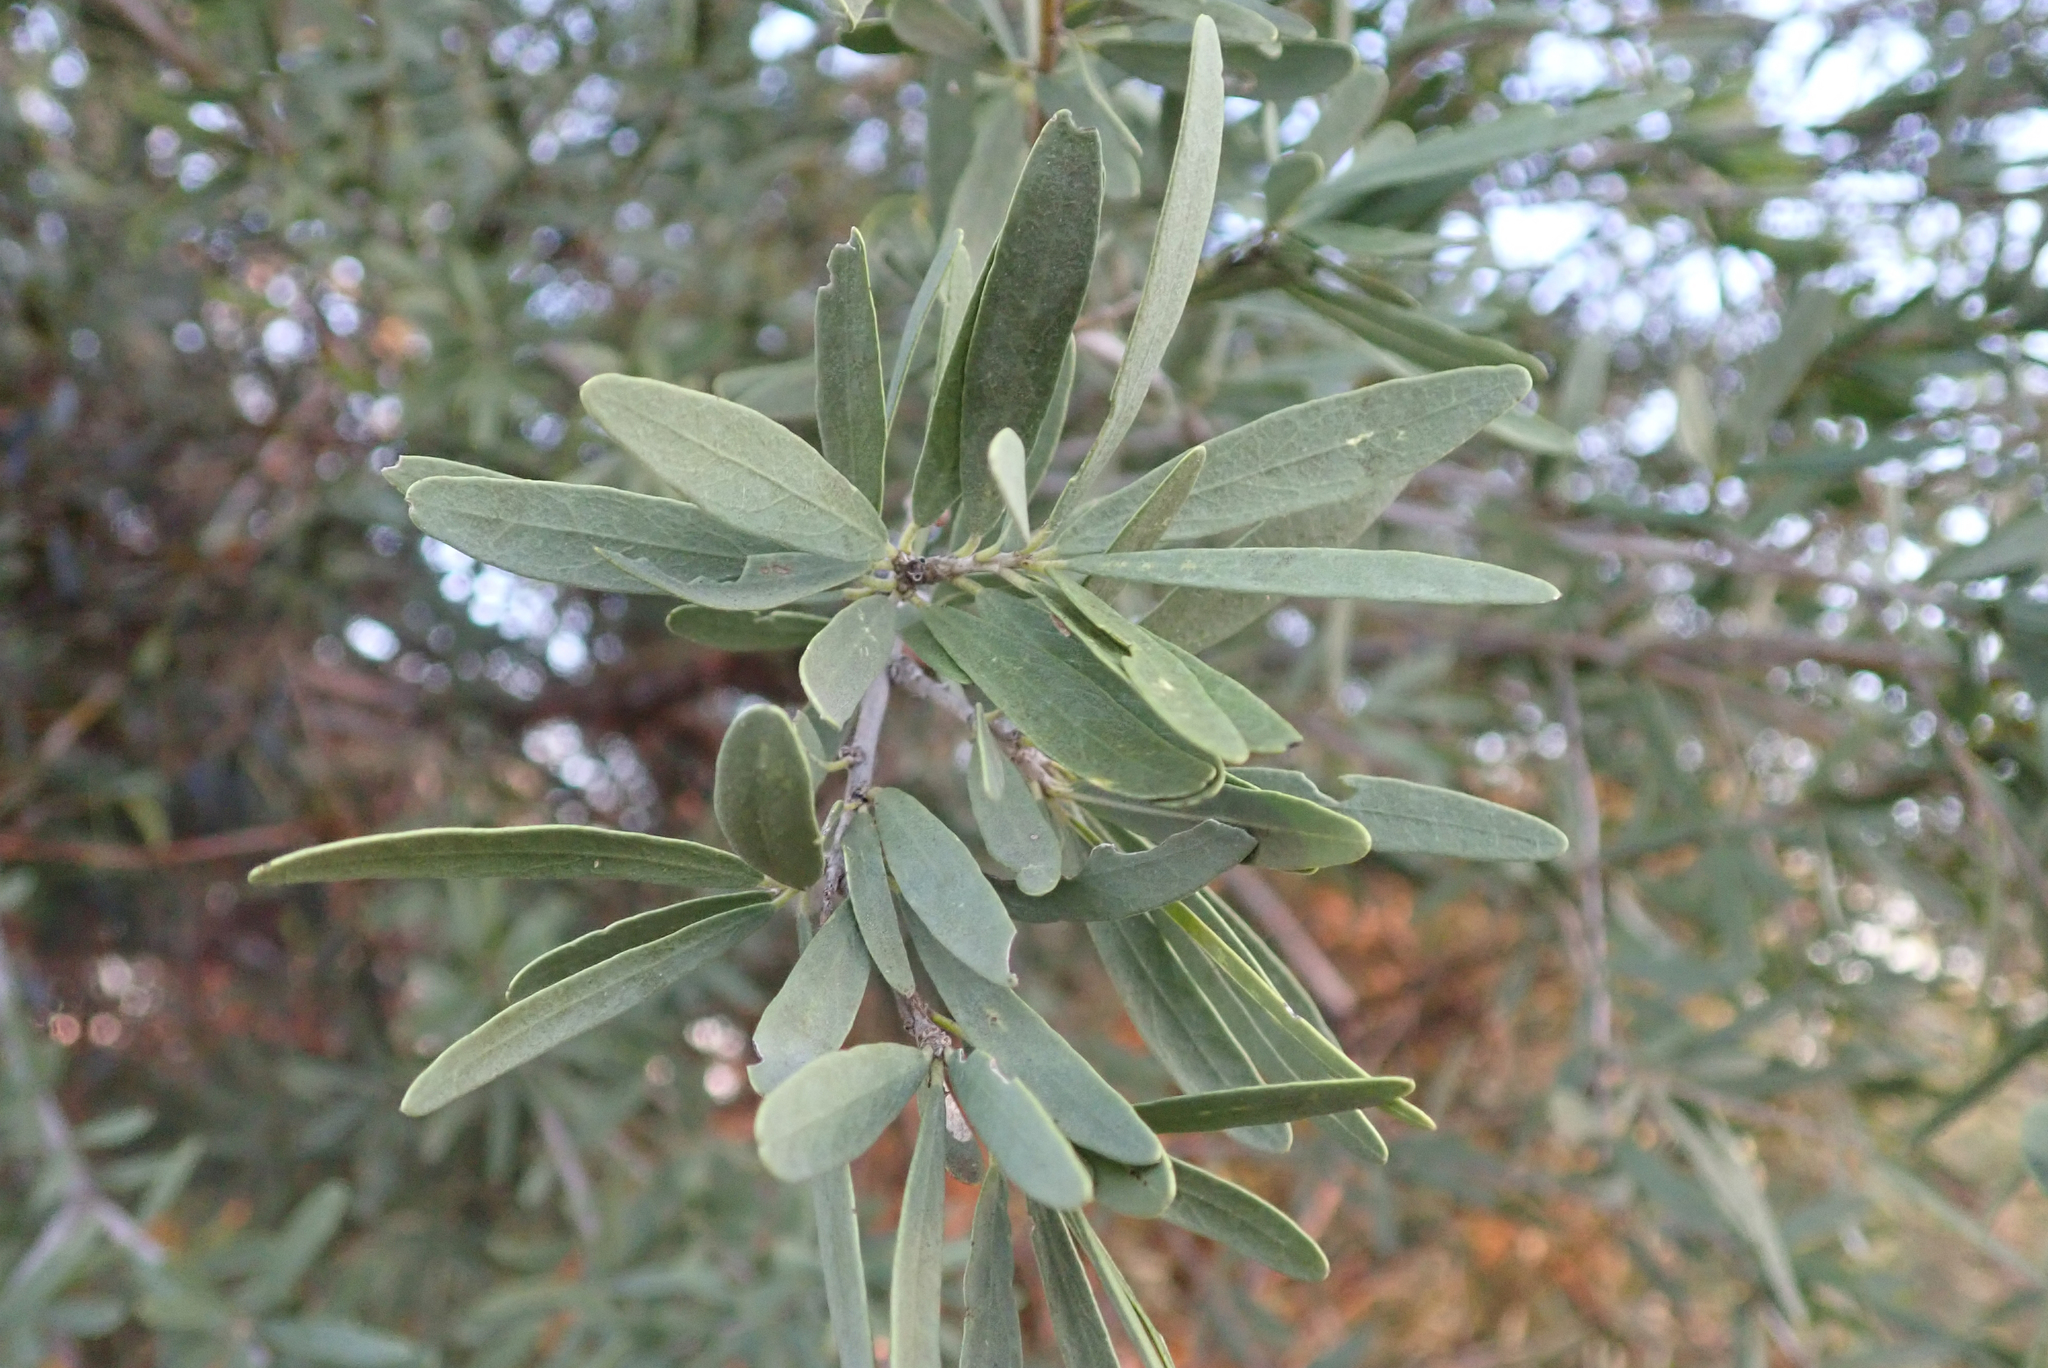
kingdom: Plantae
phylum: Tracheophyta
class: Magnoliopsida
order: Brassicales
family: Capparaceae
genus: Boscia
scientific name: Boscia albitrunca
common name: Caper bush
